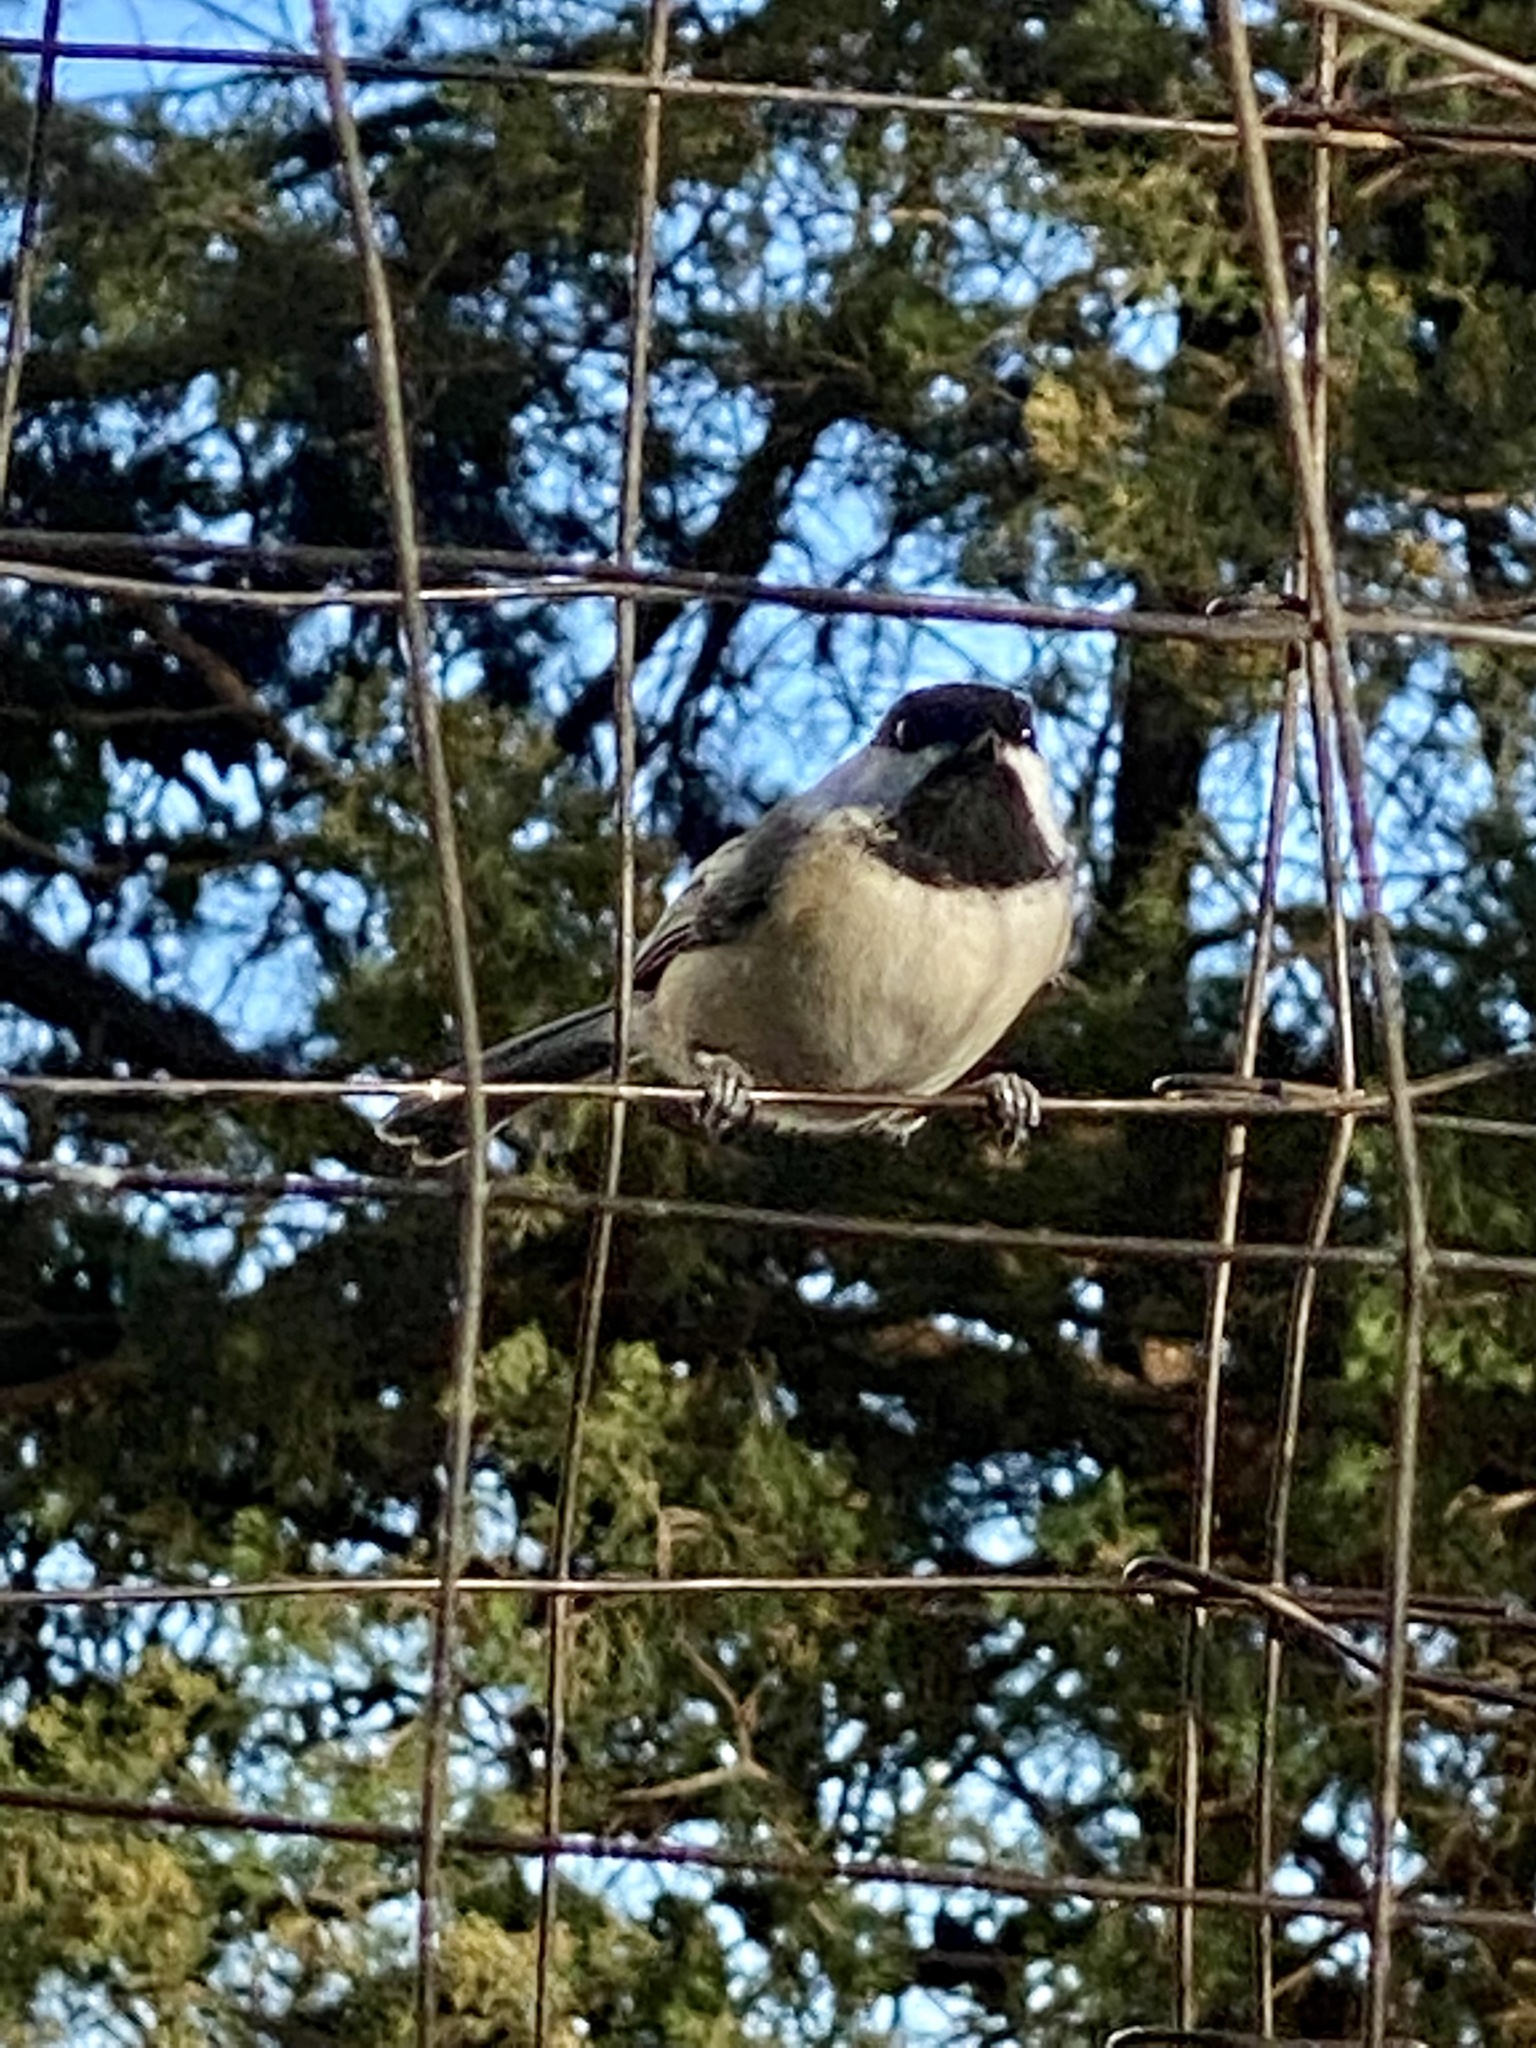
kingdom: Animalia
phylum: Chordata
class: Aves
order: Passeriformes
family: Paridae
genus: Poecile
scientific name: Poecile atricapillus
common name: Black-capped chickadee
